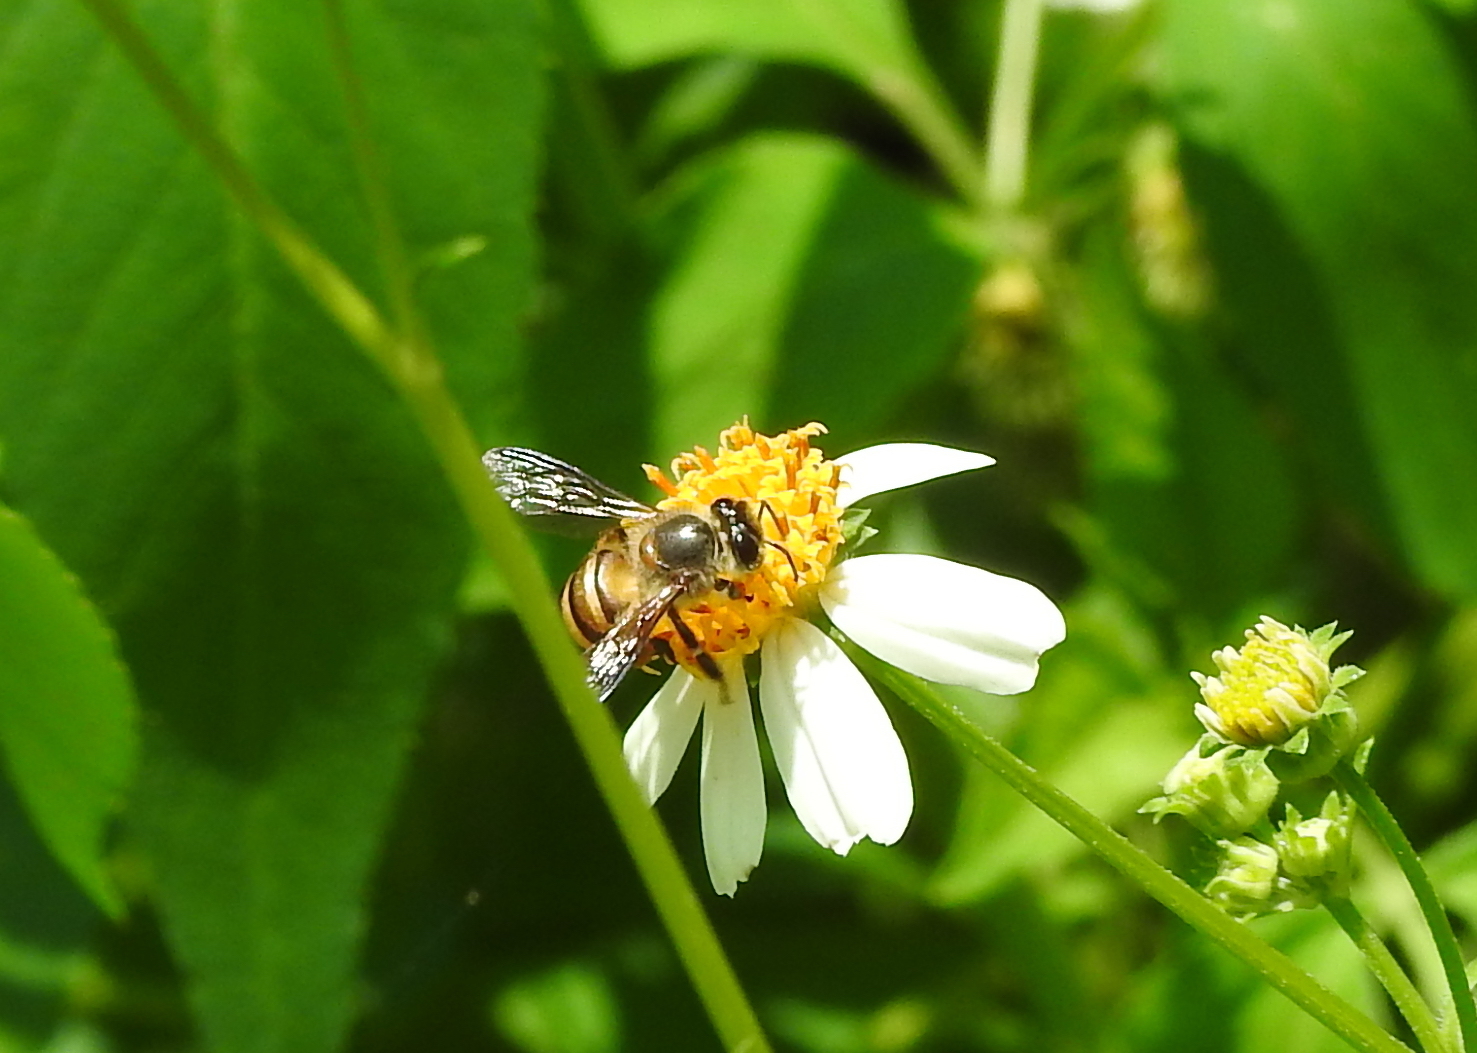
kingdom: Animalia
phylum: Arthropoda
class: Insecta
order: Hymenoptera
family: Apidae
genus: Apis
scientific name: Apis cerana
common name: Honey bee
